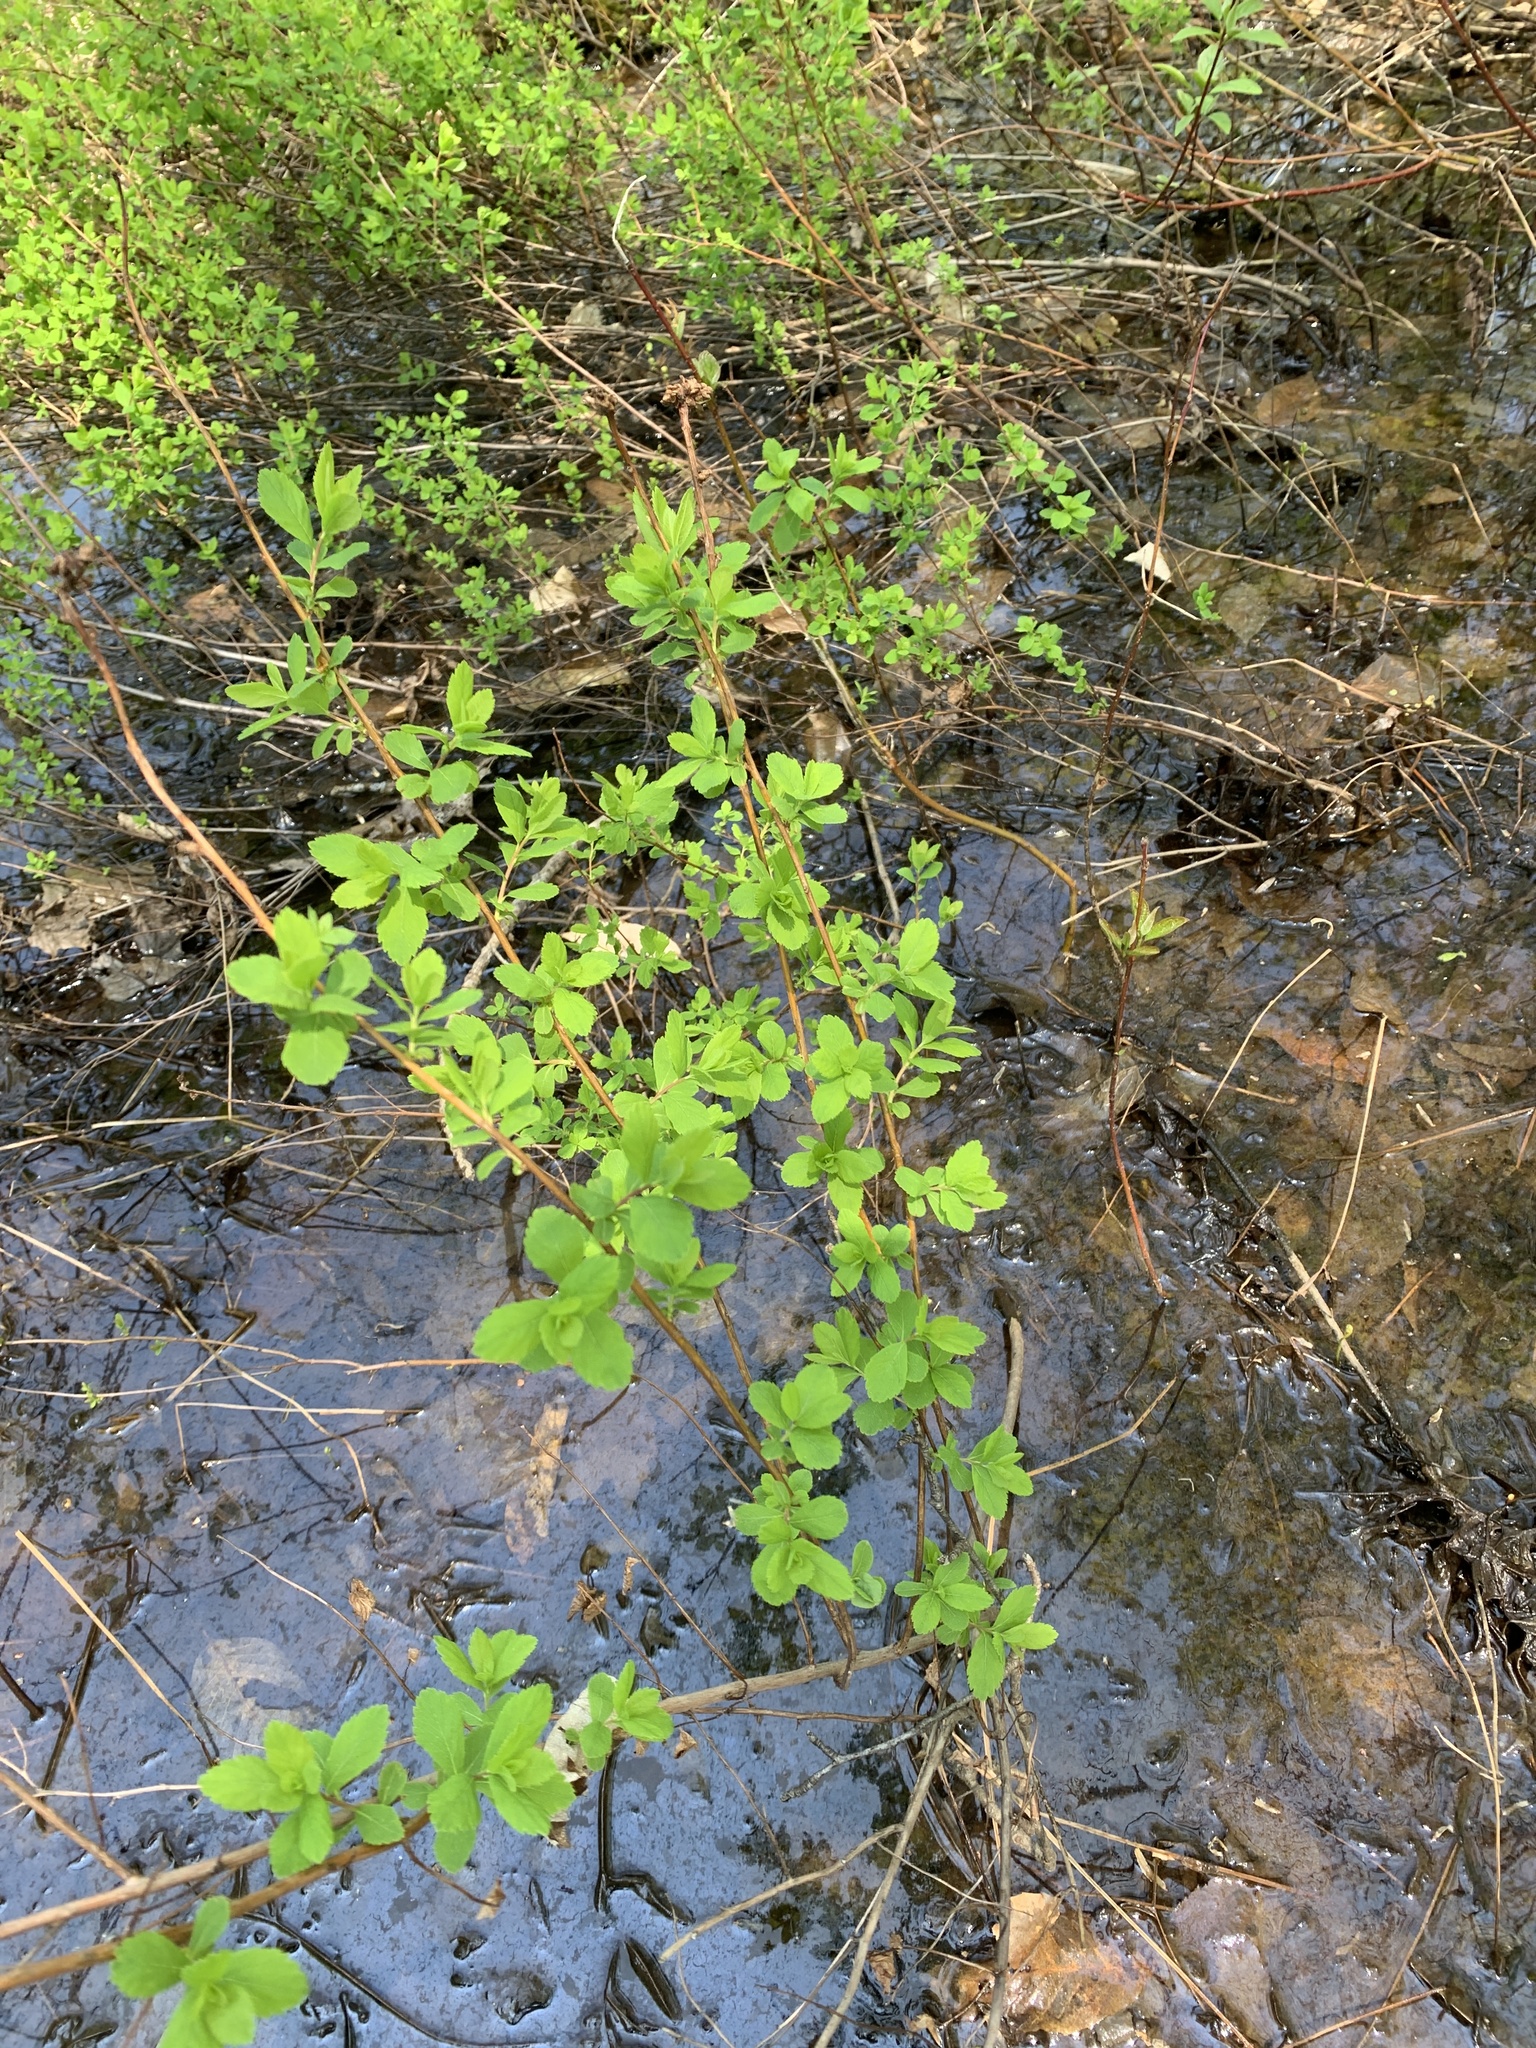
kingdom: Plantae
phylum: Tracheophyta
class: Magnoliopsida
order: Rosales
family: Rosaceae
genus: Spiraea
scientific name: Spiraea alba
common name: Pale bridewort
